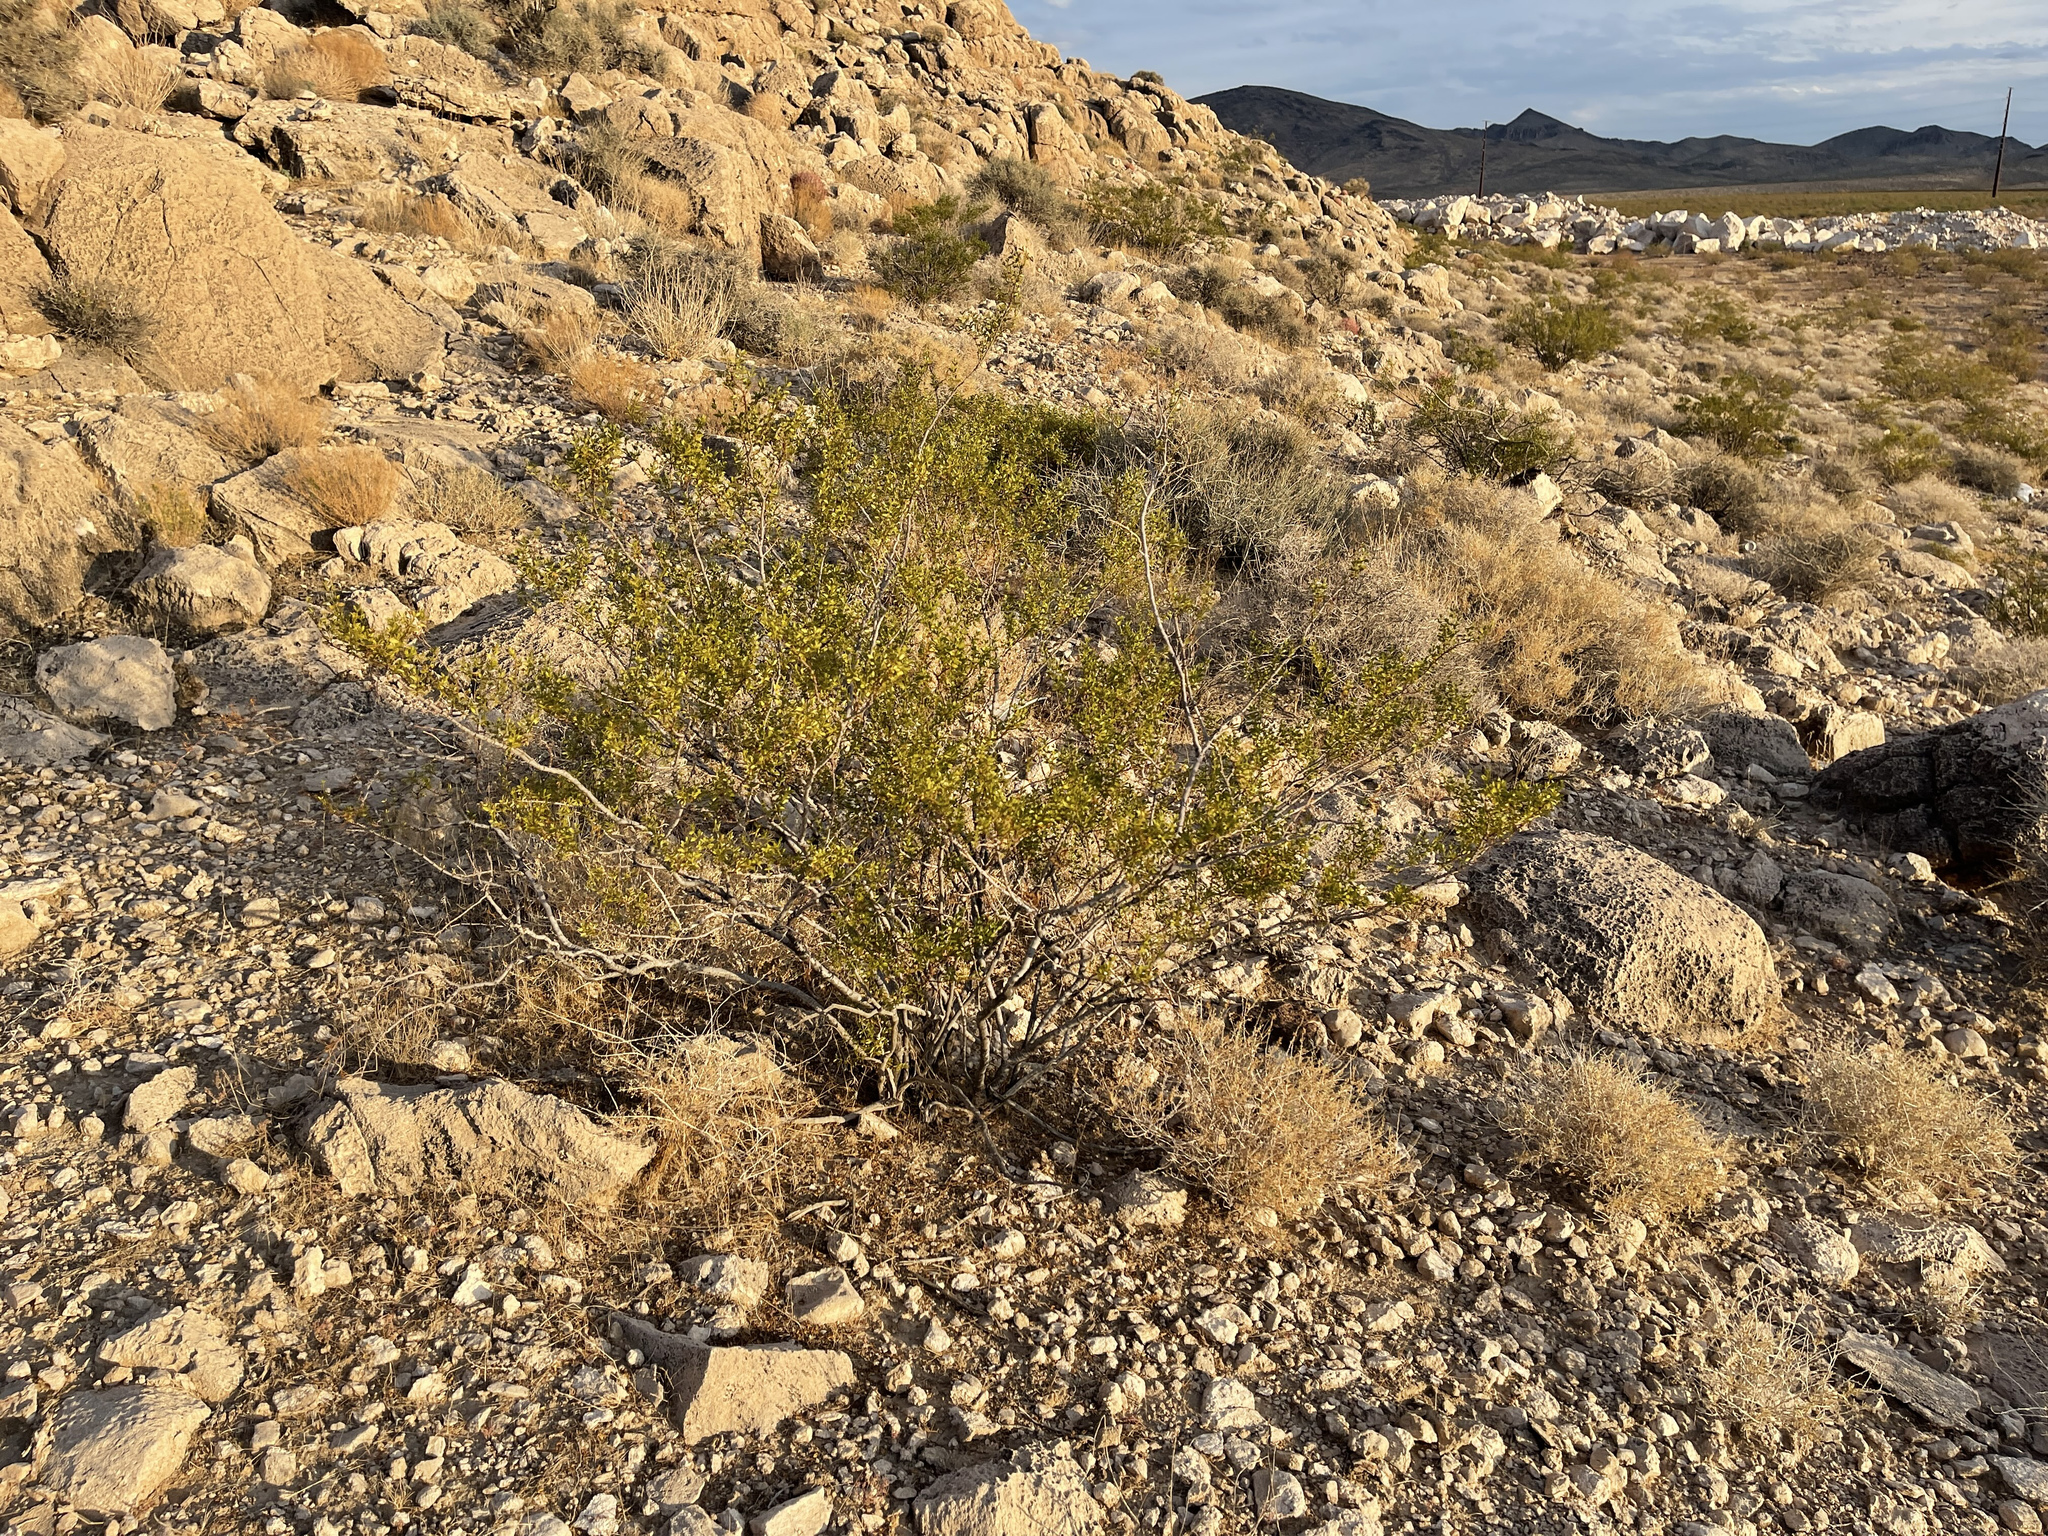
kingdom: Plantae
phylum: Tracheophyta
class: Magnoliopsida
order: Zygophyllales
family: Zygophyllaceae
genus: Larrea
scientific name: Larrea tridentata
